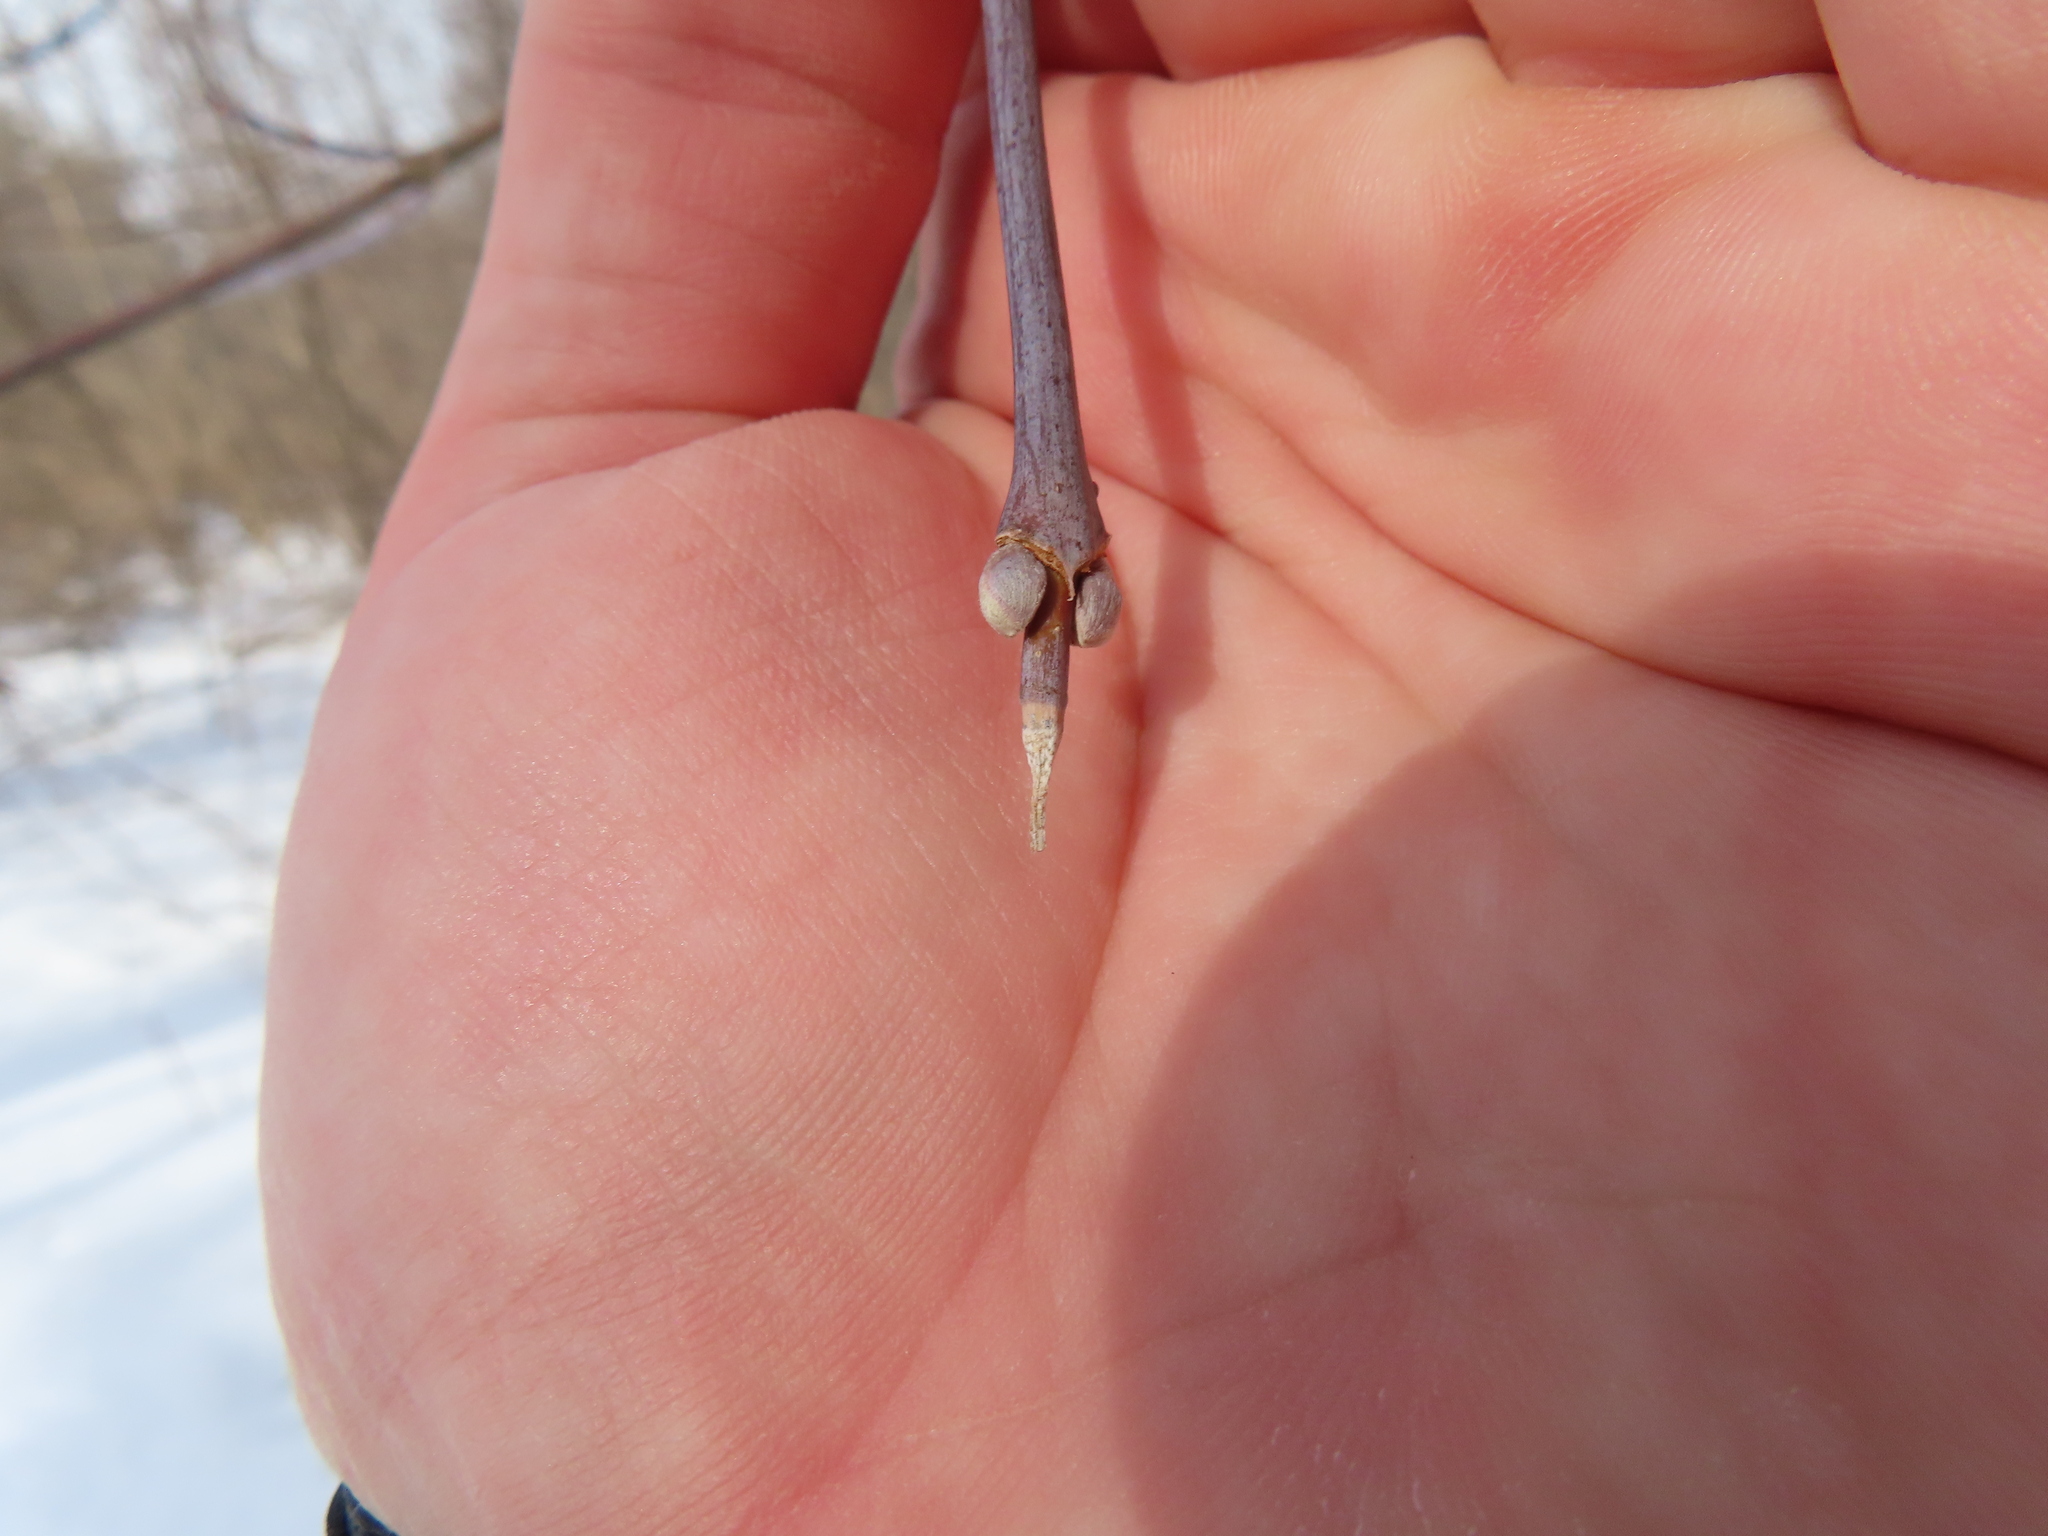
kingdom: Plantae
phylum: Tracheophyta
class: Magnoliopsida
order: Sapindales
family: Sapindaceae
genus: Acer
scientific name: Acer negundo
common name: Ashleaf maple
